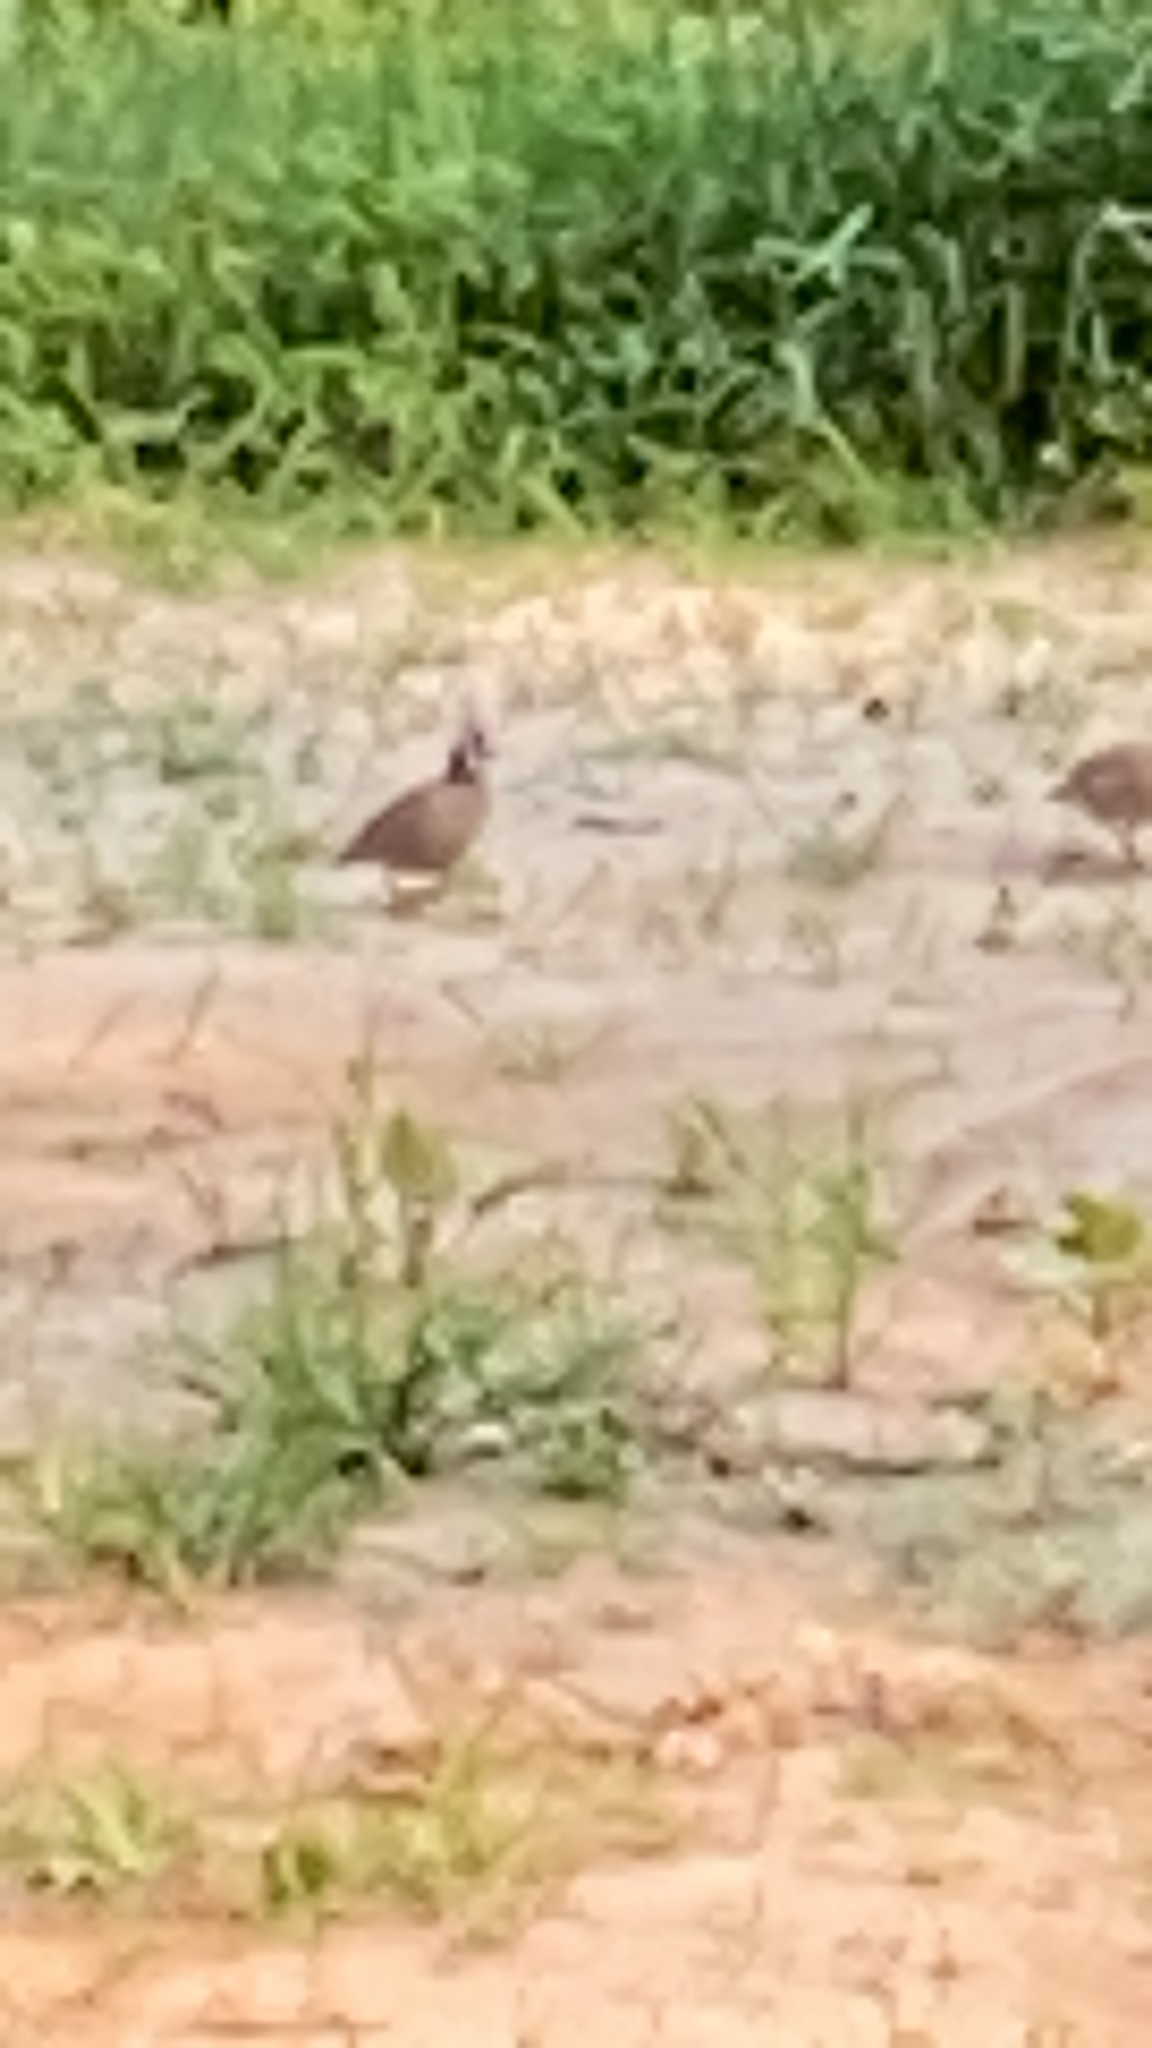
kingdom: Animalia
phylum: Chordata
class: Aves
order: Galliformes
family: Odontophoridae
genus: Colinus
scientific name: Colinus virginianus
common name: Northern bobwhite
